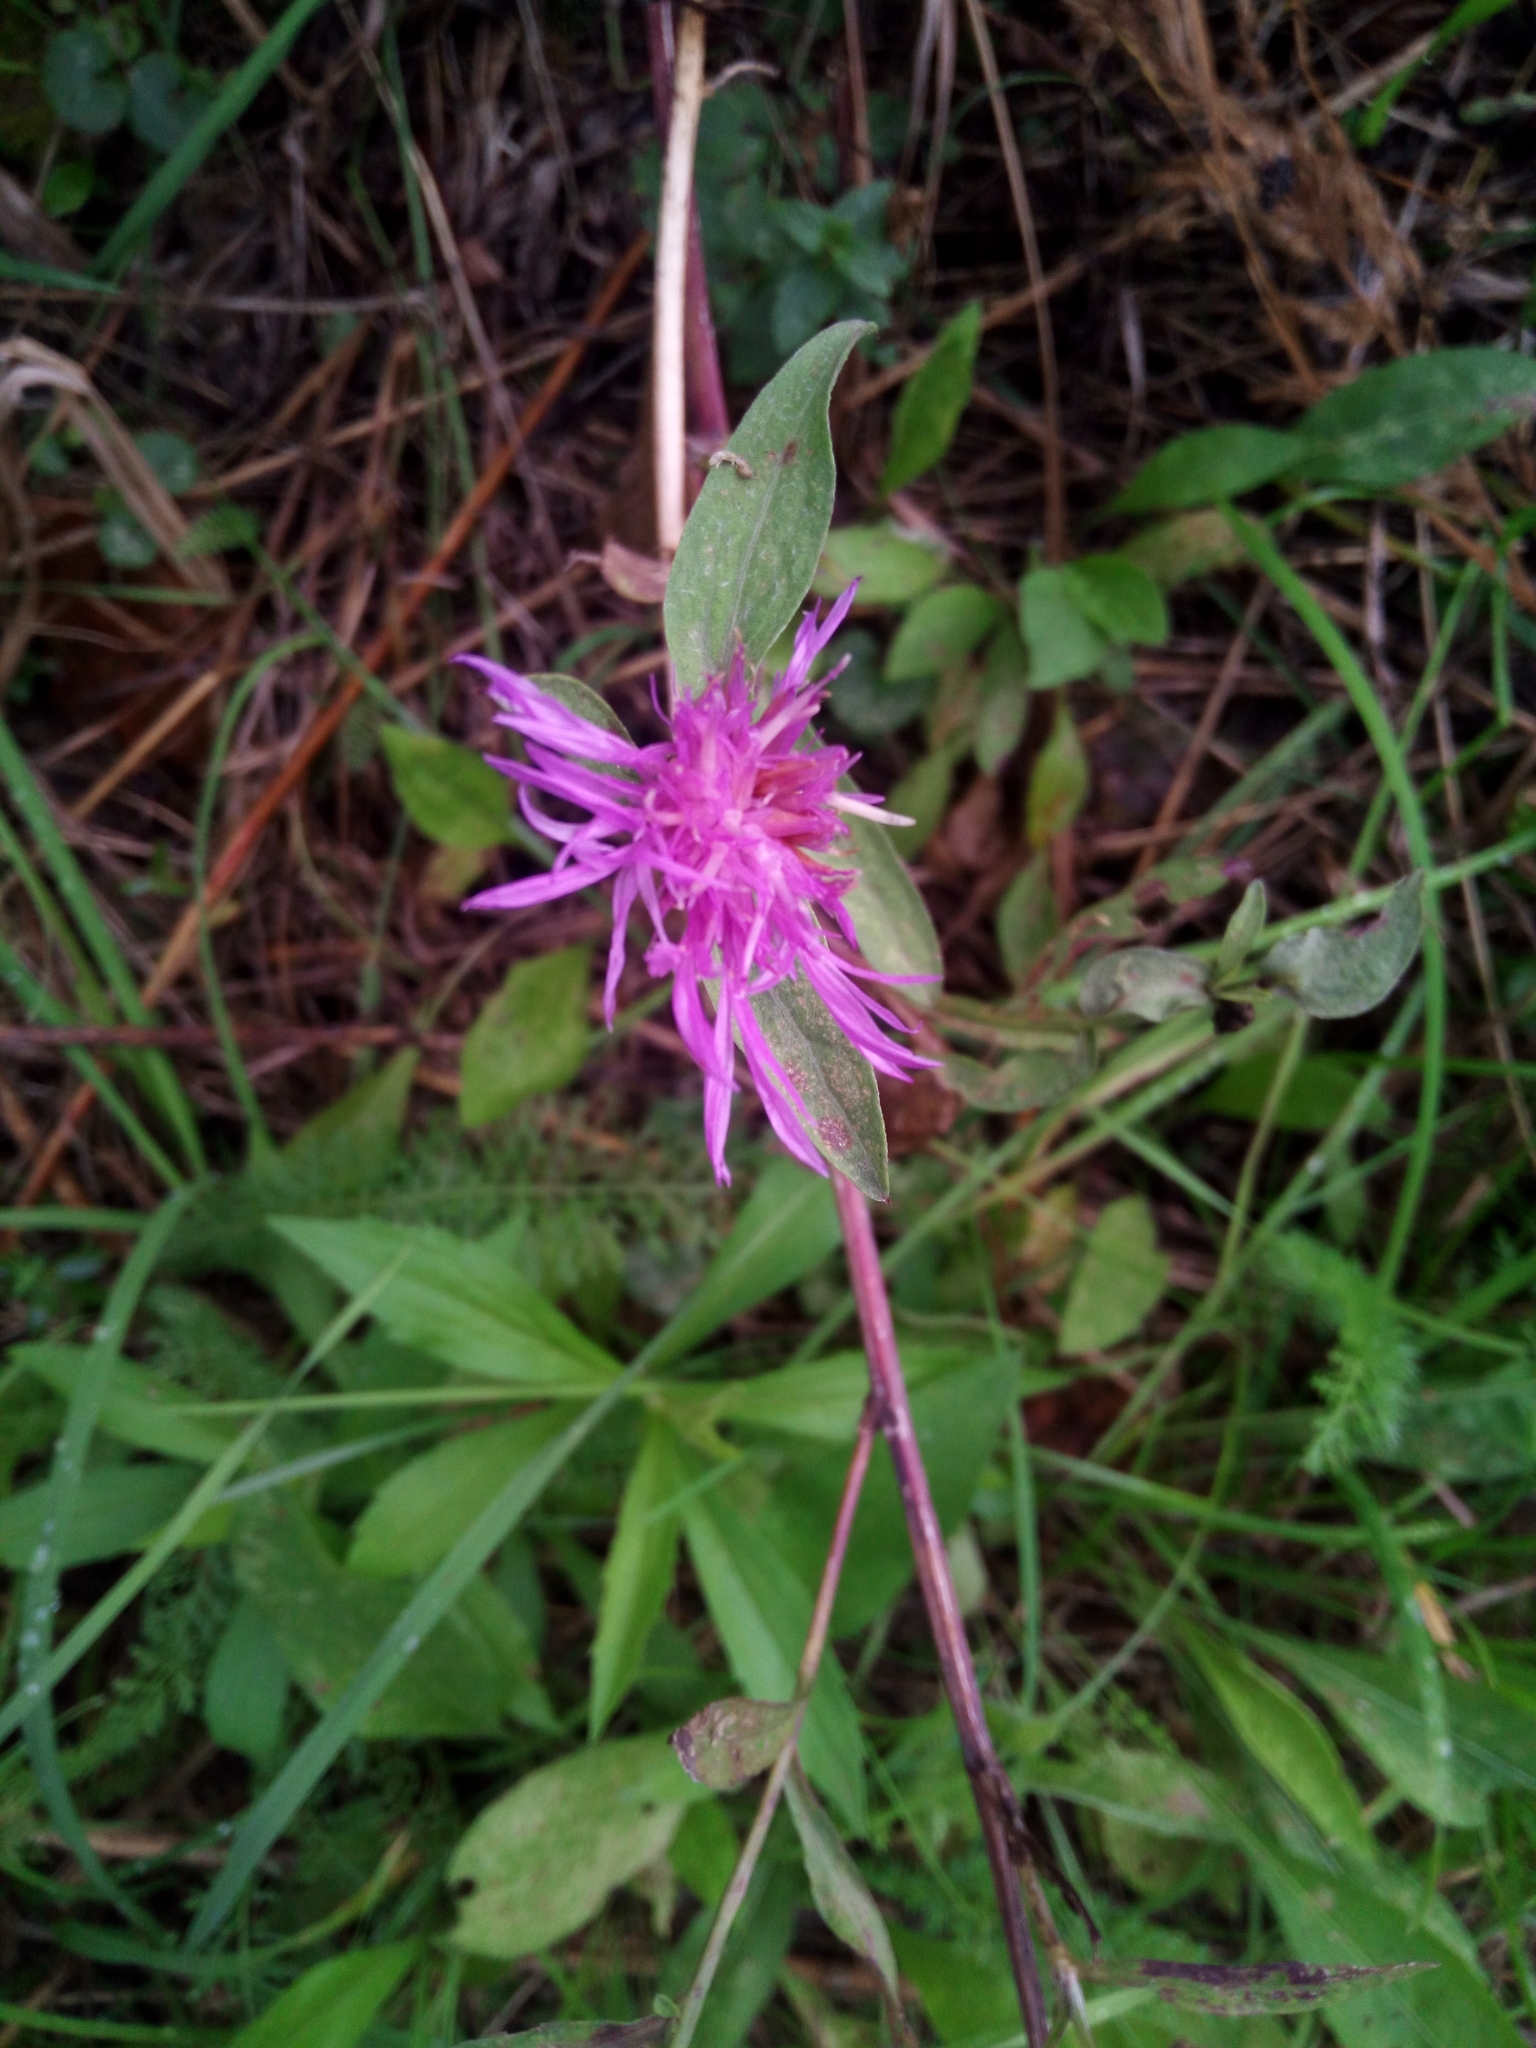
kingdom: Plantae
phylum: Tracheophyta
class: Magnoliopsida
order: Asterales
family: Asteraceae
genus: Centaurea
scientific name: Centaurea jacea
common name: Brown knapweed
